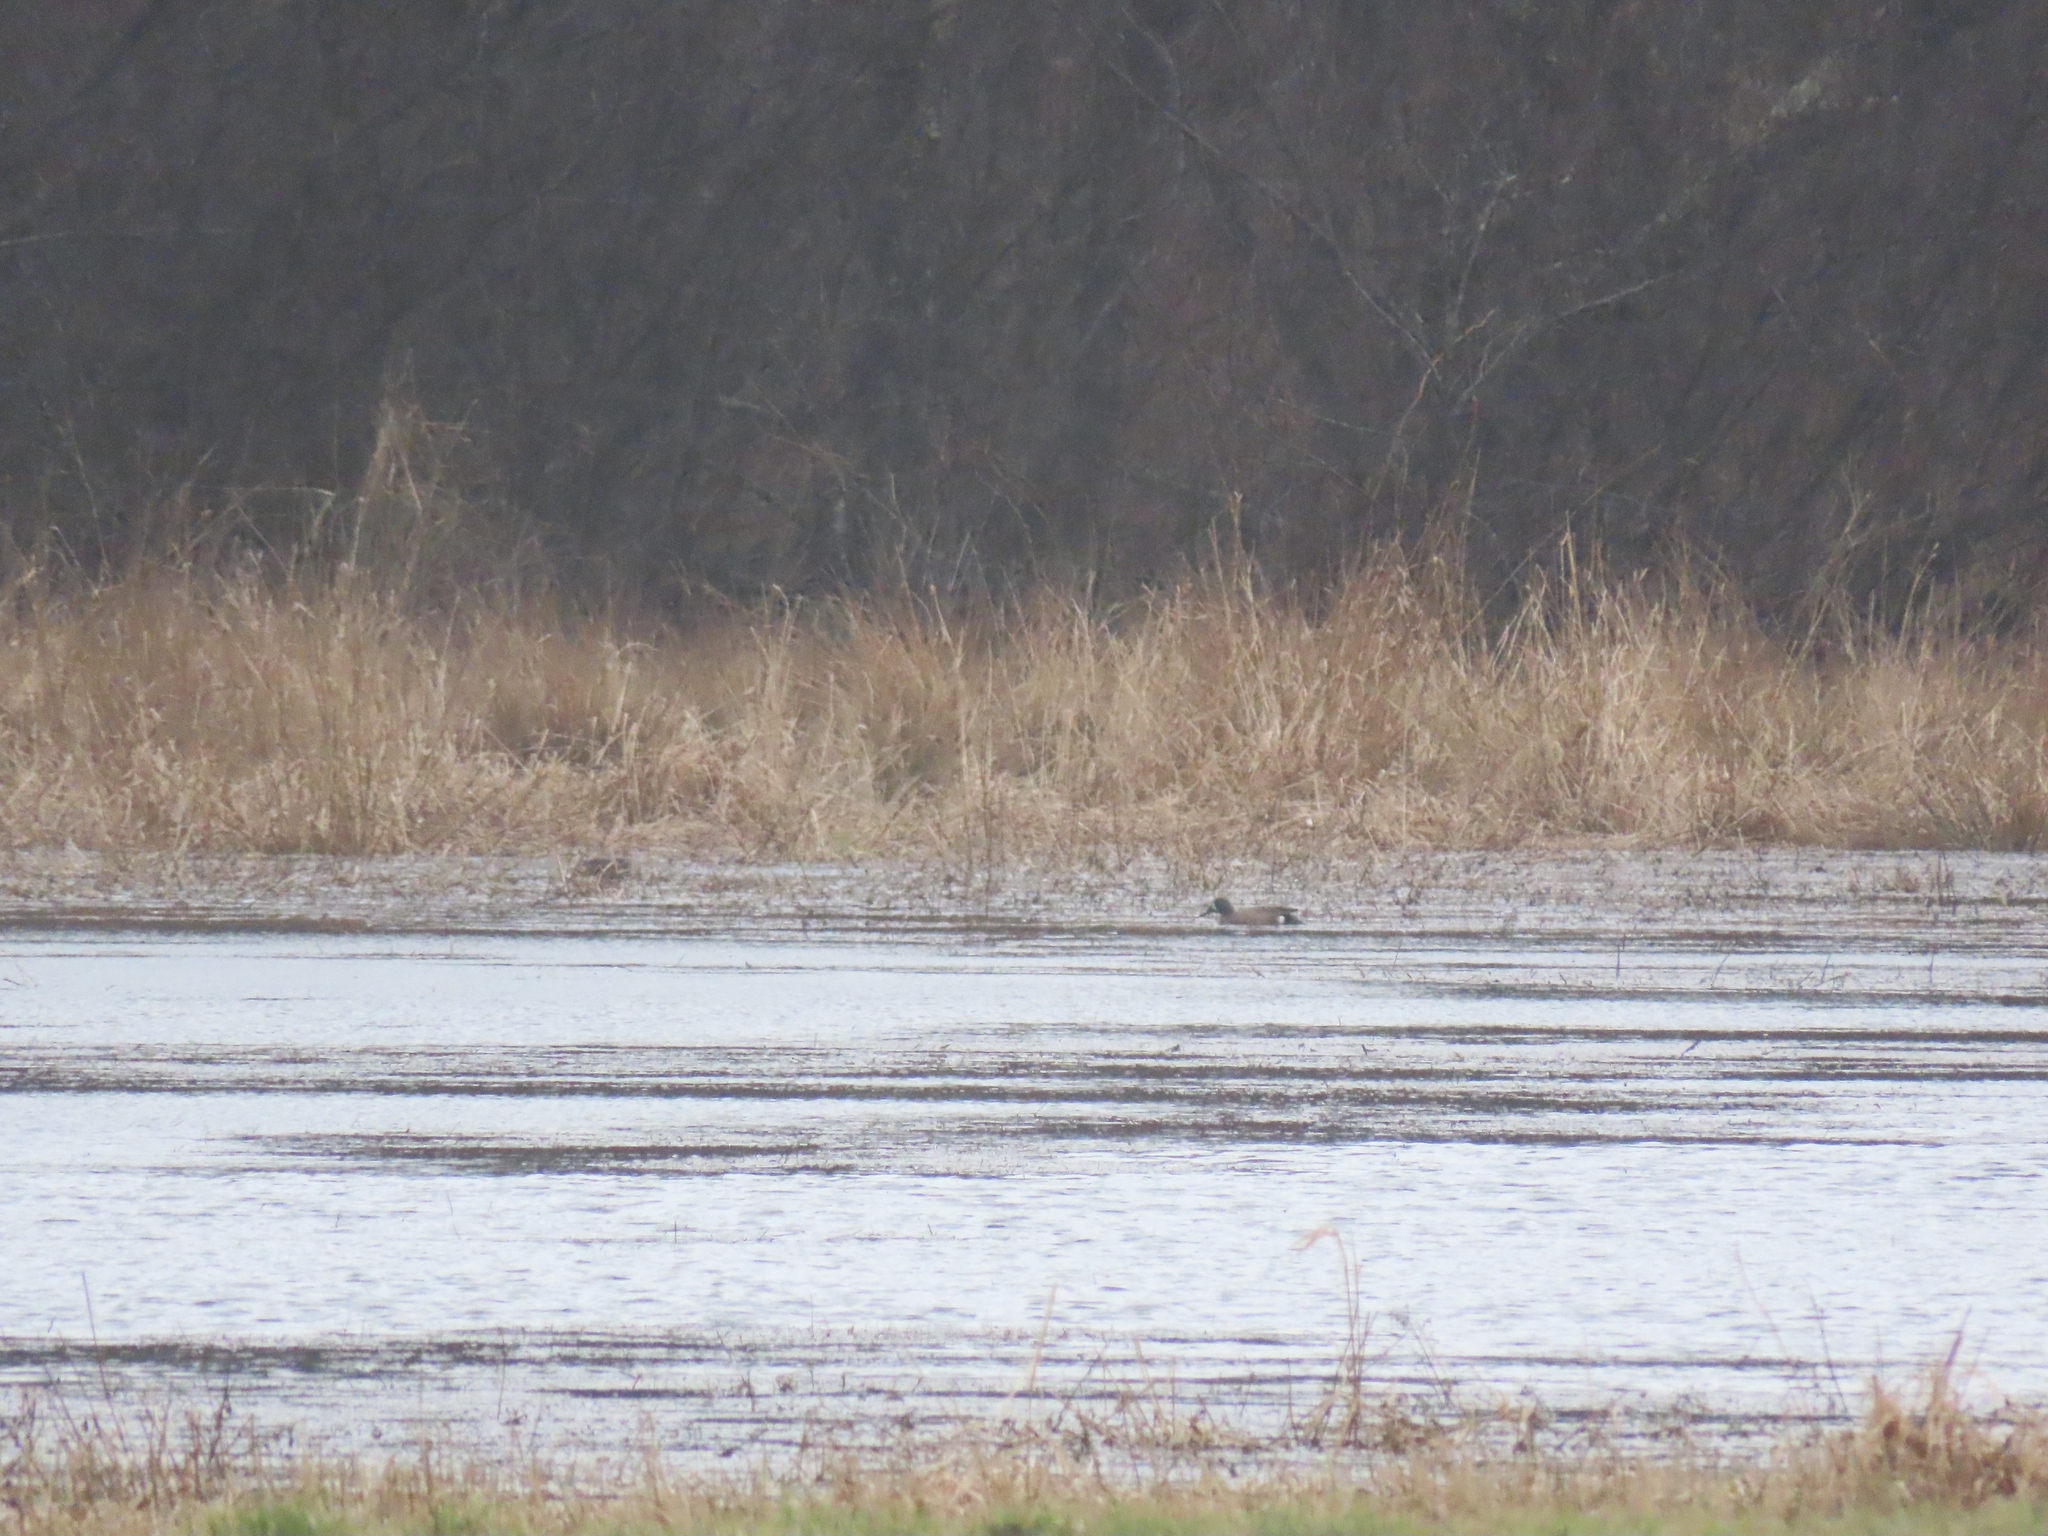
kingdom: Animalia
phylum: Chordata
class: Aves
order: Anseriformes
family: Anatidae
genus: Spatula
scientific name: Spatula discors
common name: Blue-winged teal
